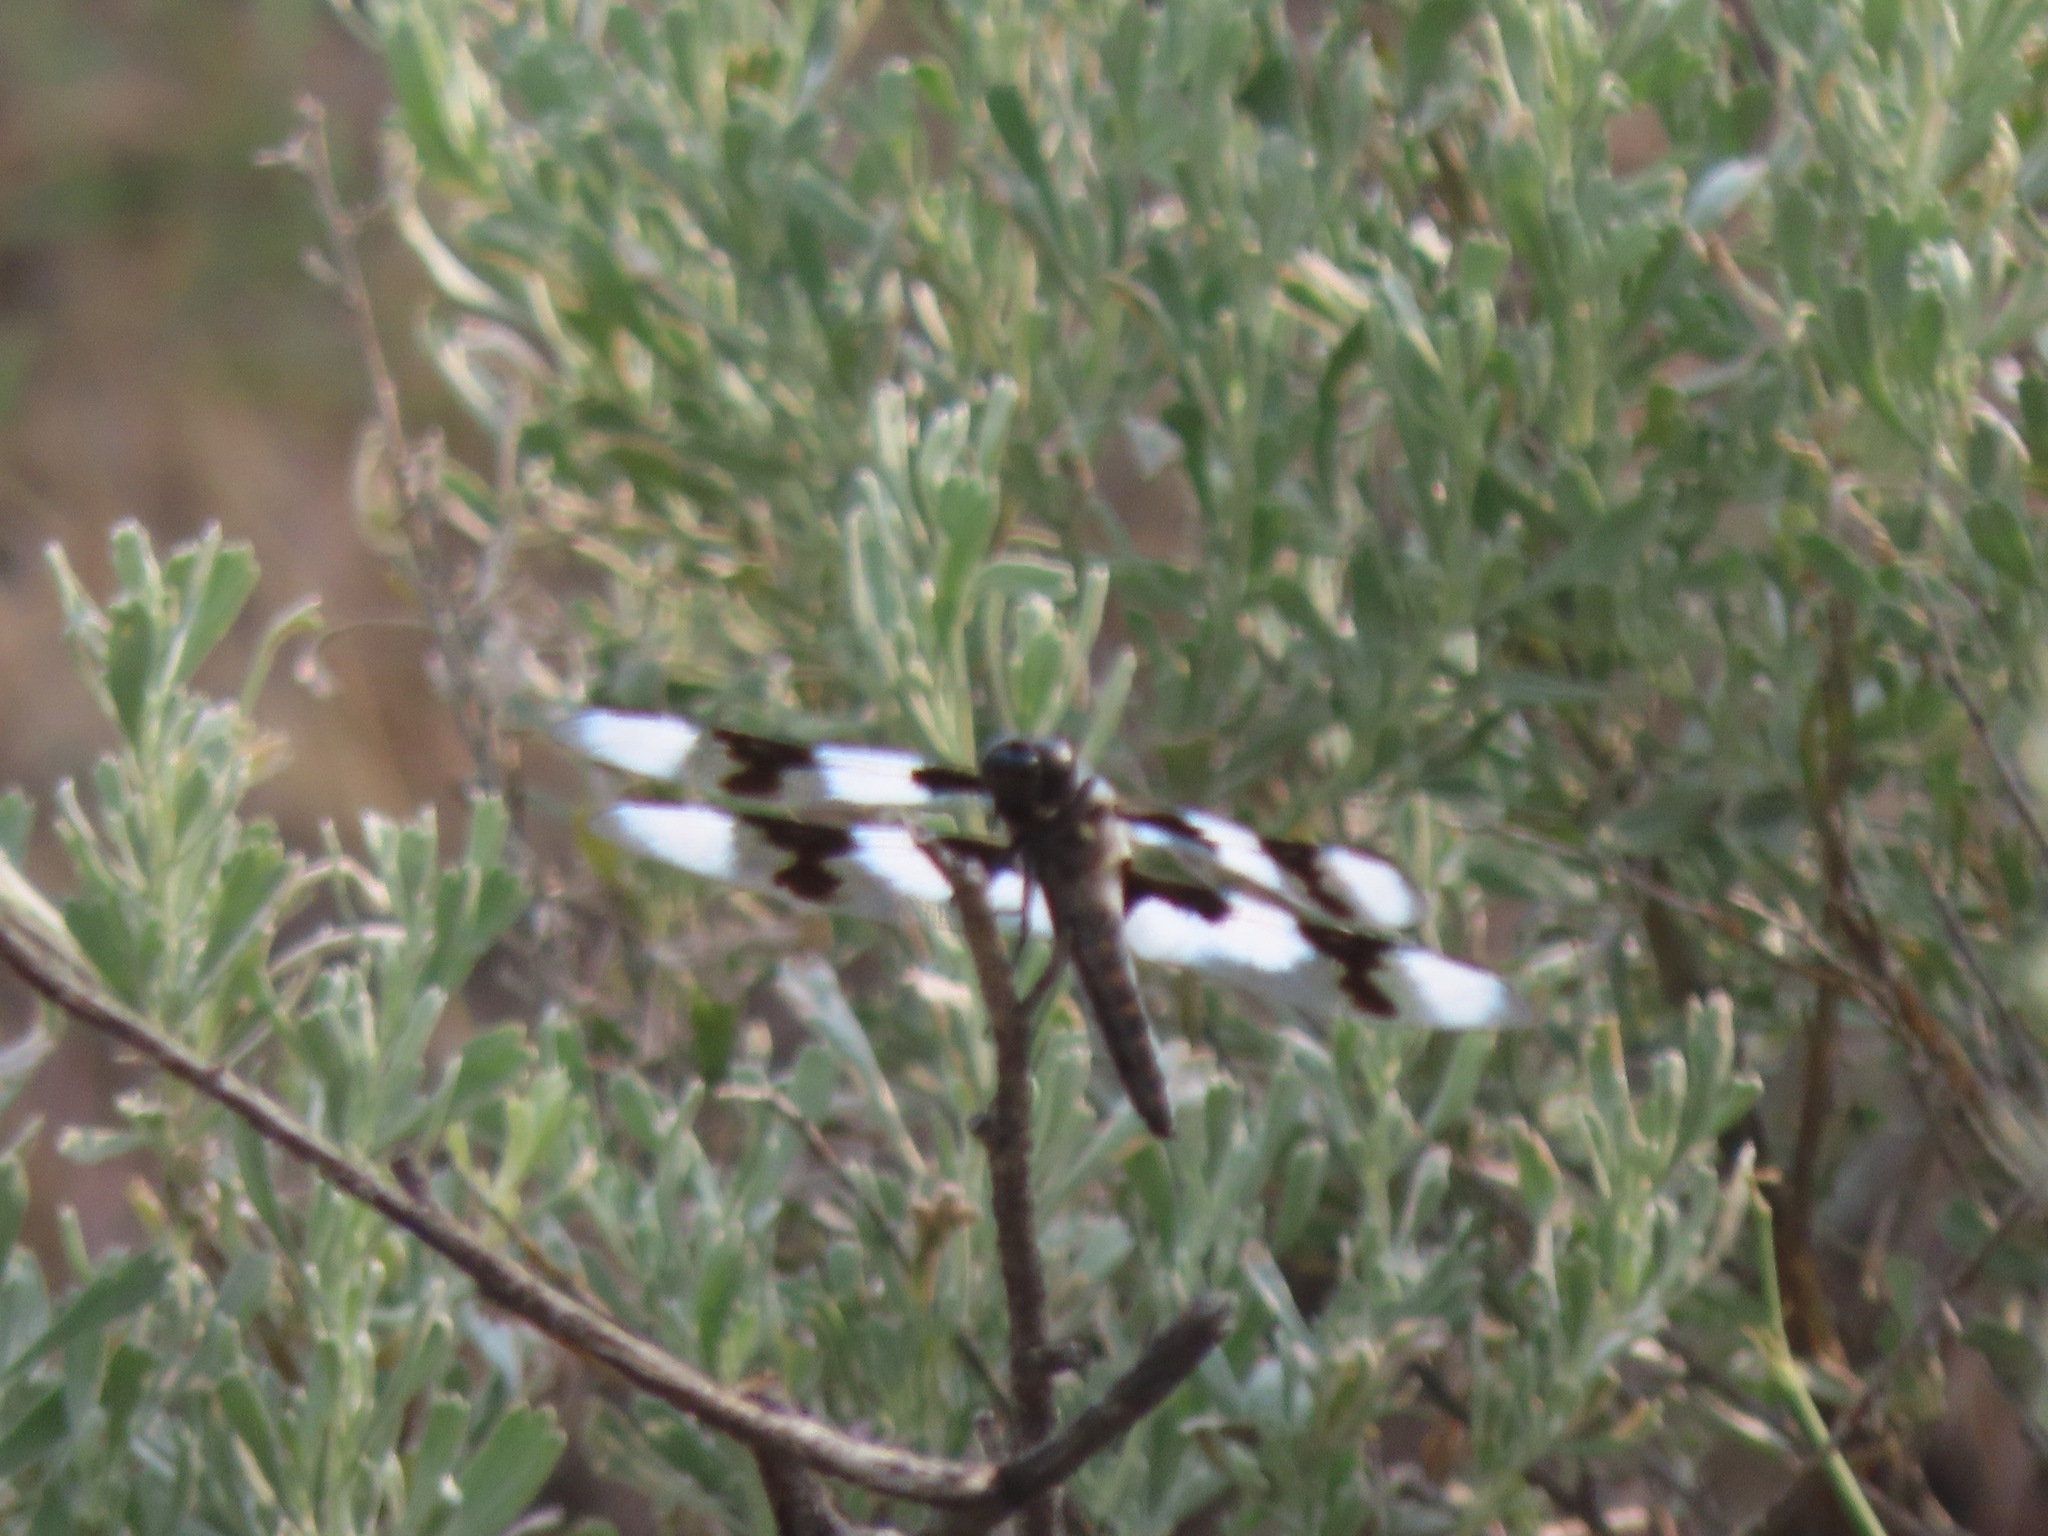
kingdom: Animalia
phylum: Arthropoda
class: Insecta
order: Odonata
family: Libellulidae
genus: Libellula
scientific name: Libellula forensis
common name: Eight-spotted skimmer
